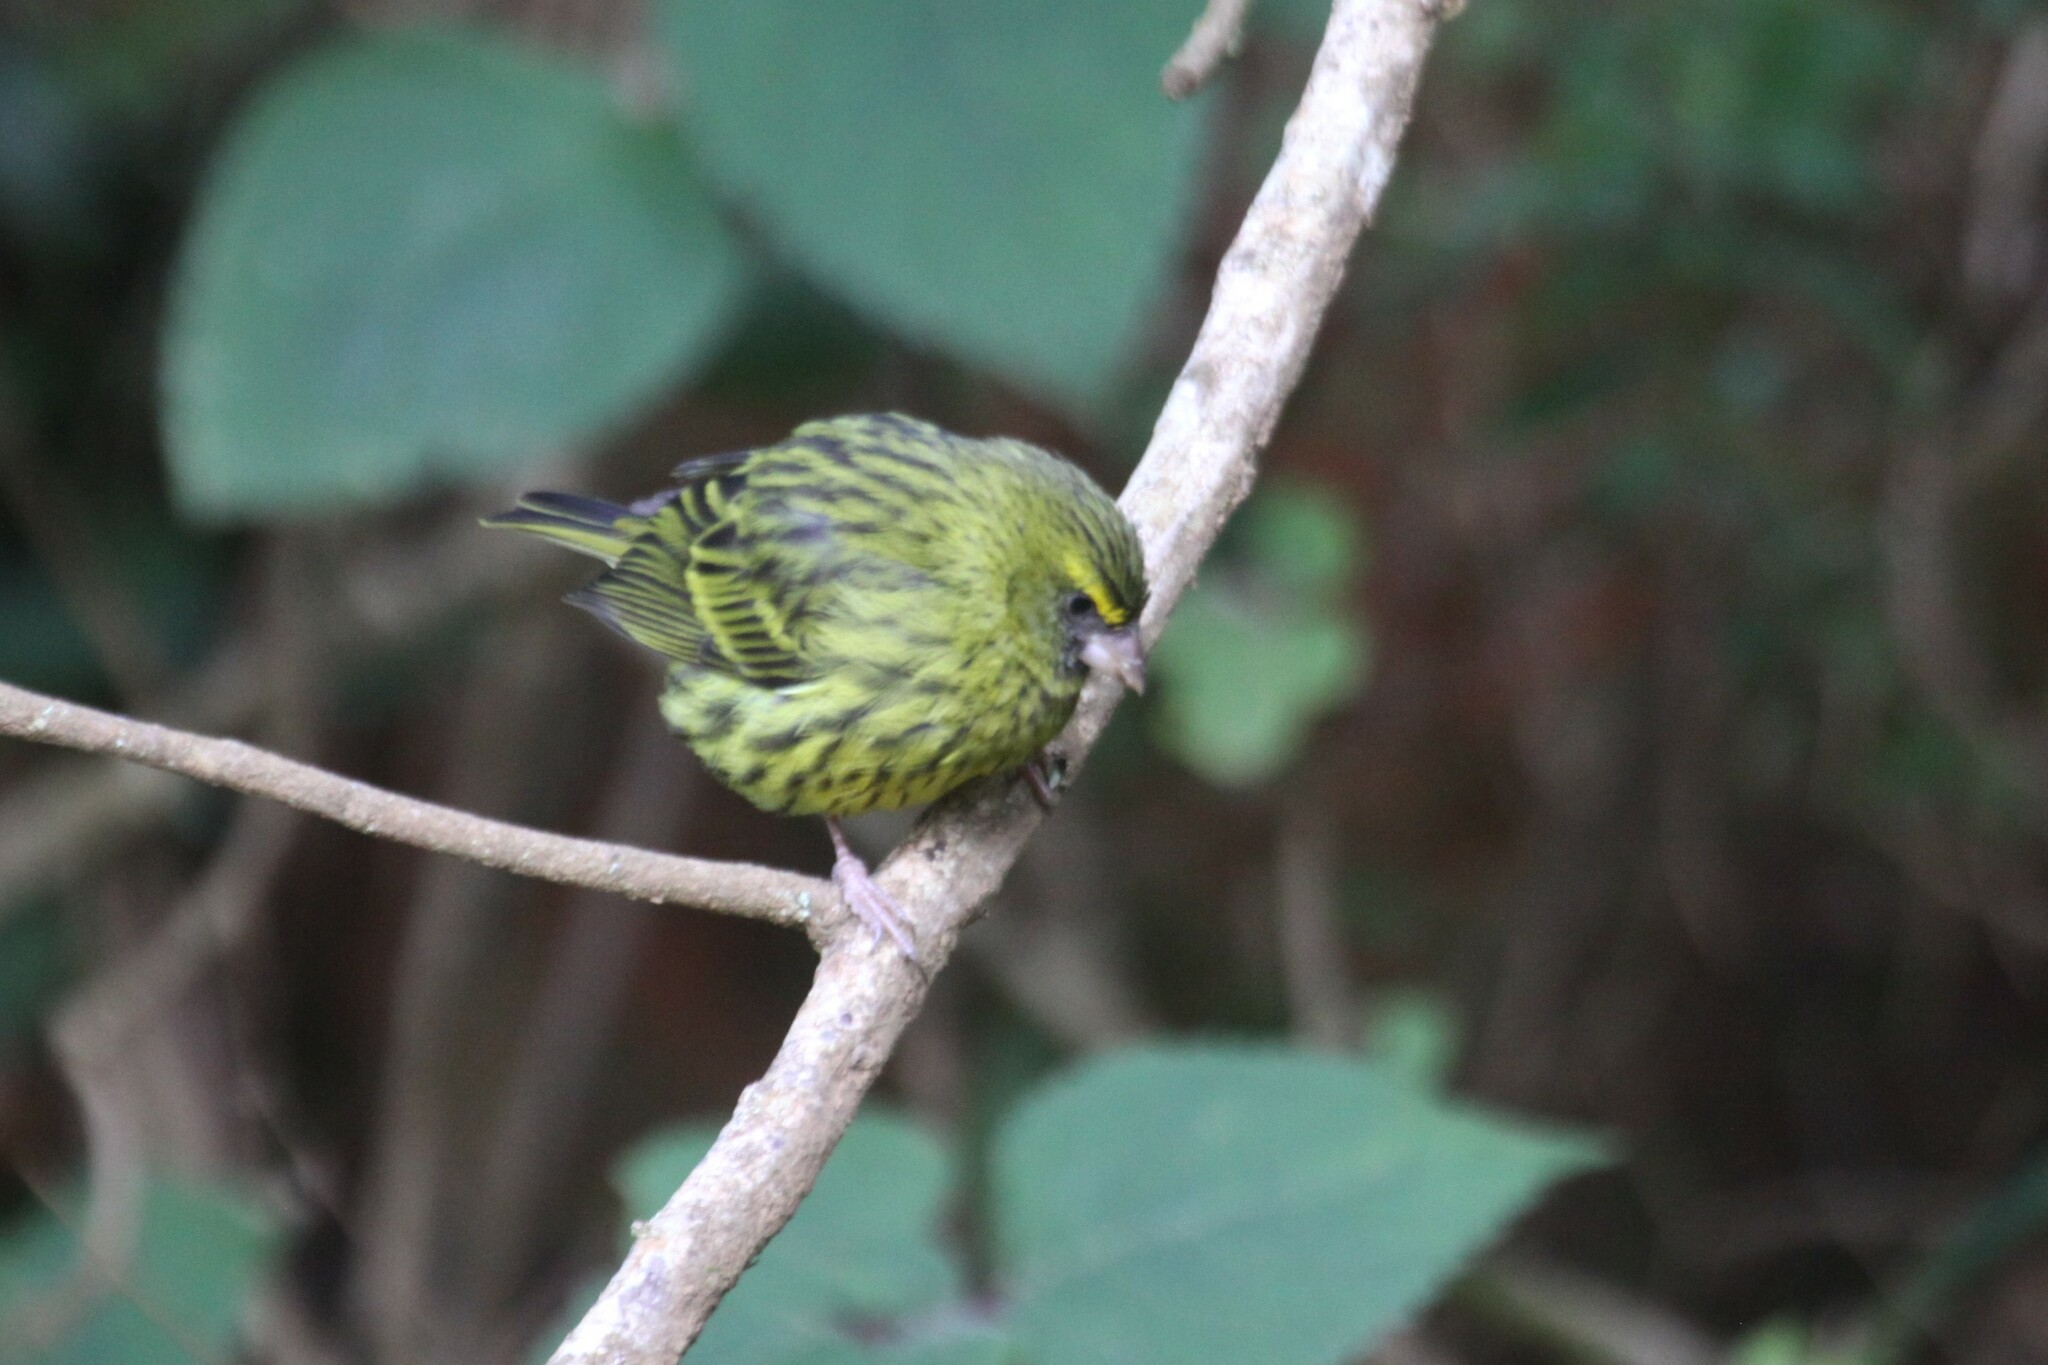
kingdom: Animalia
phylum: Chordata
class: Aves
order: Passeriformes
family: Fringillidae
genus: Crithagra
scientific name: Crithagra scotops
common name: Forest canary
